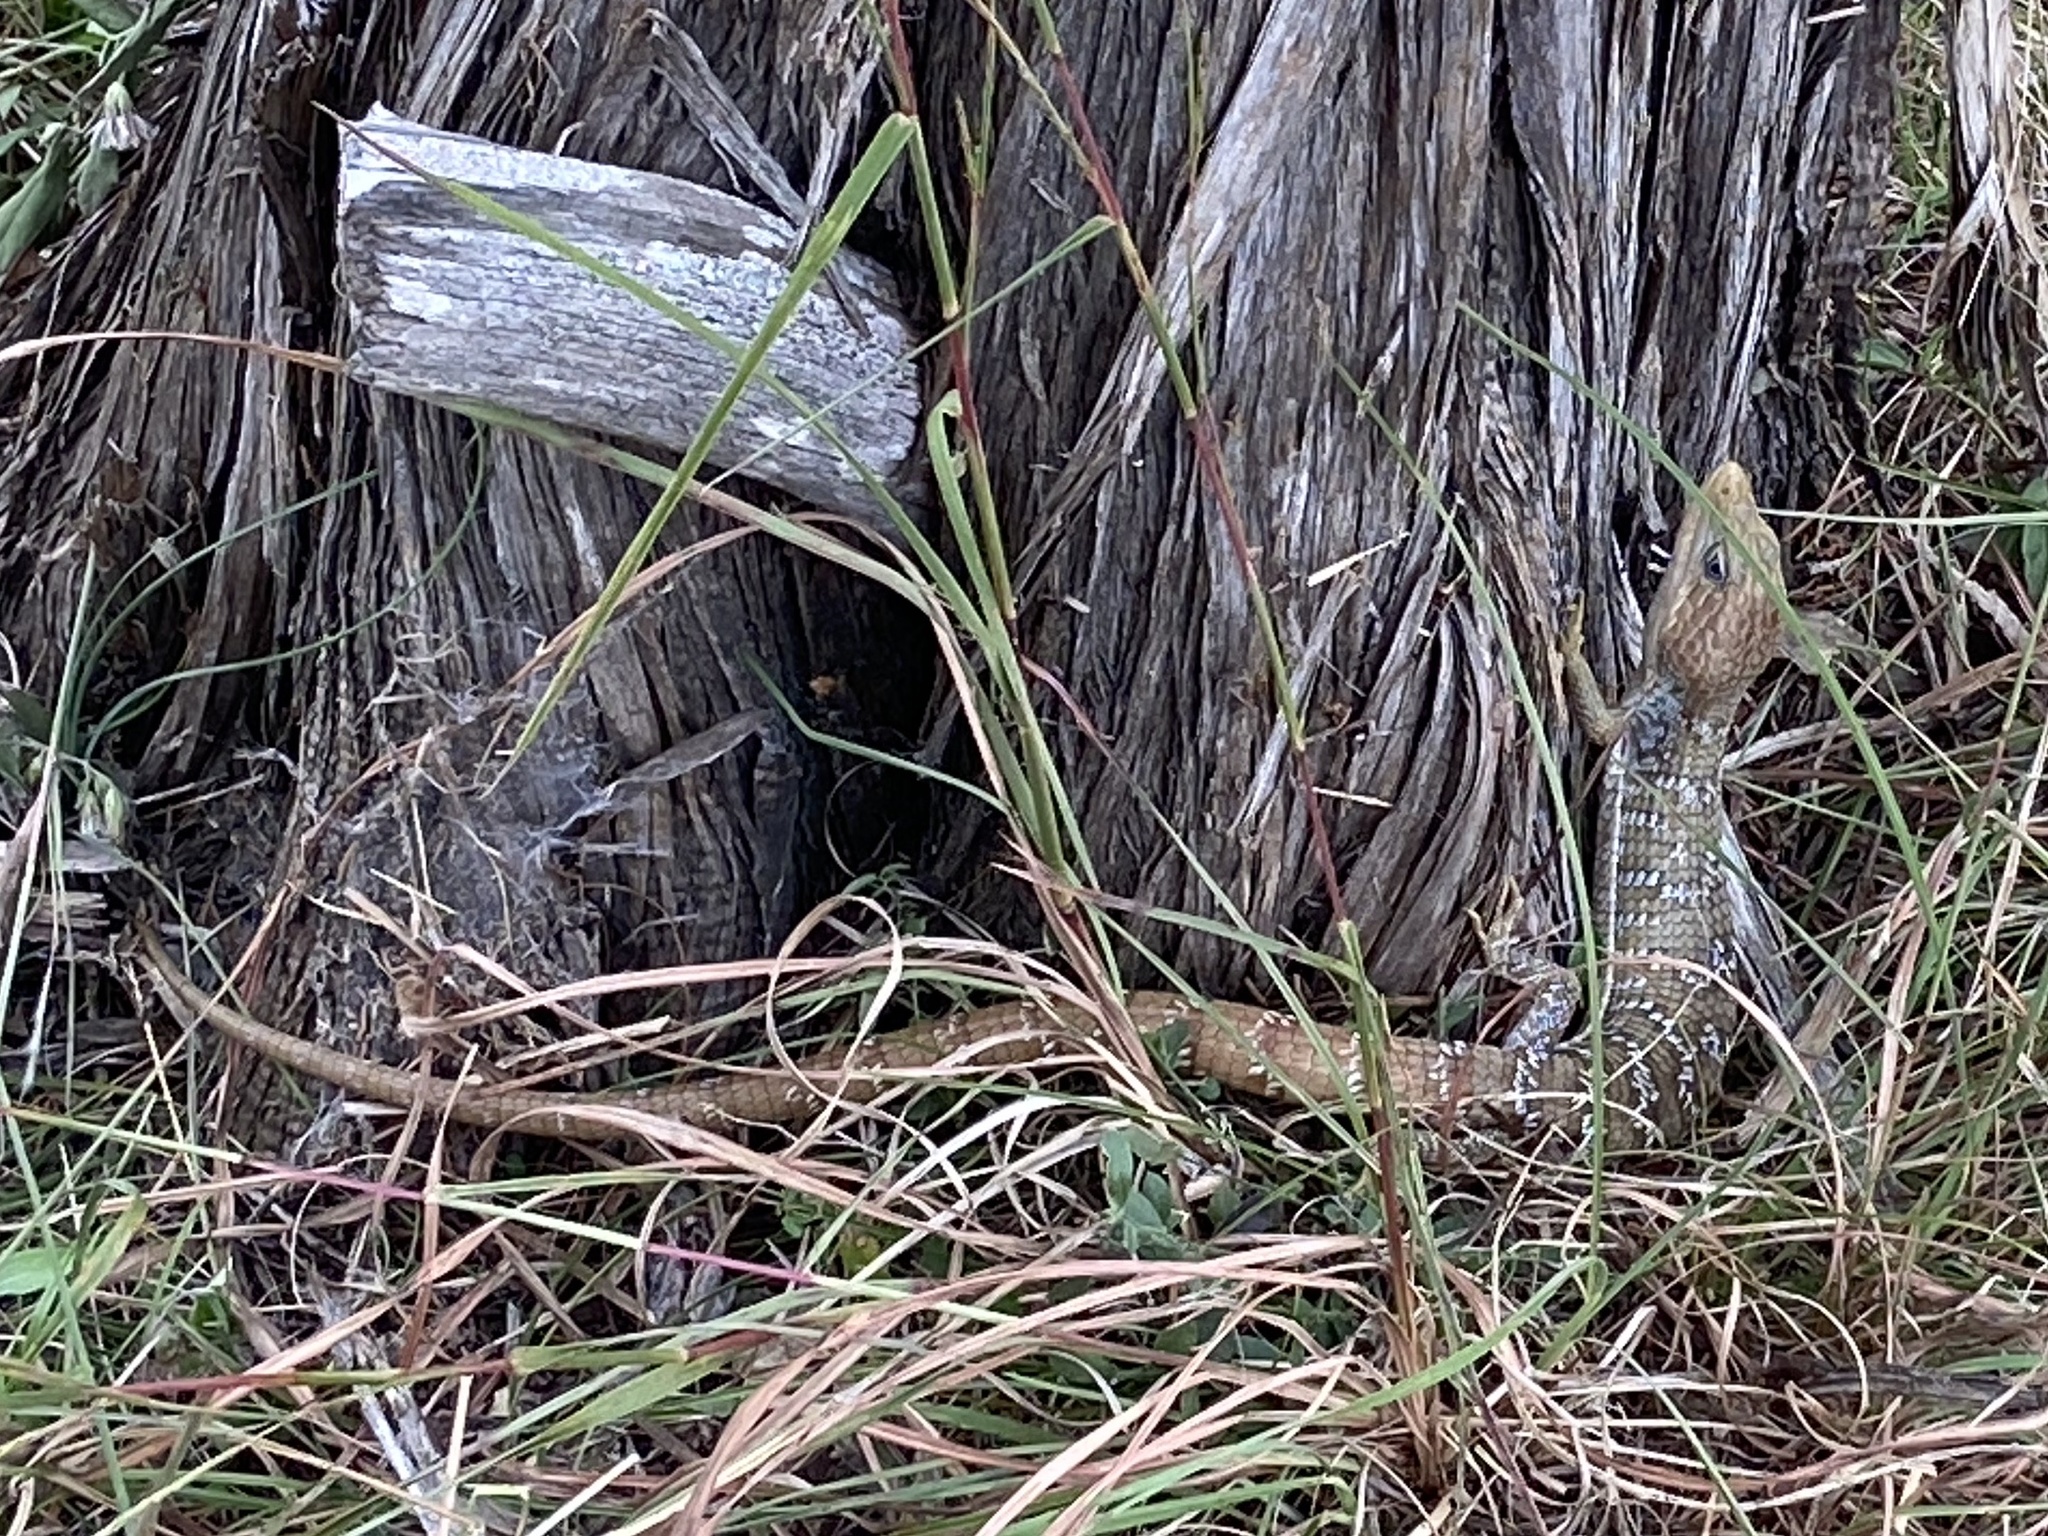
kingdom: Animalia
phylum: Chordata
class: Squamata
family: Anguidae
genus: Gerrhonotus
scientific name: Gerrhonotus infernalis
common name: Texas alligator lizard
